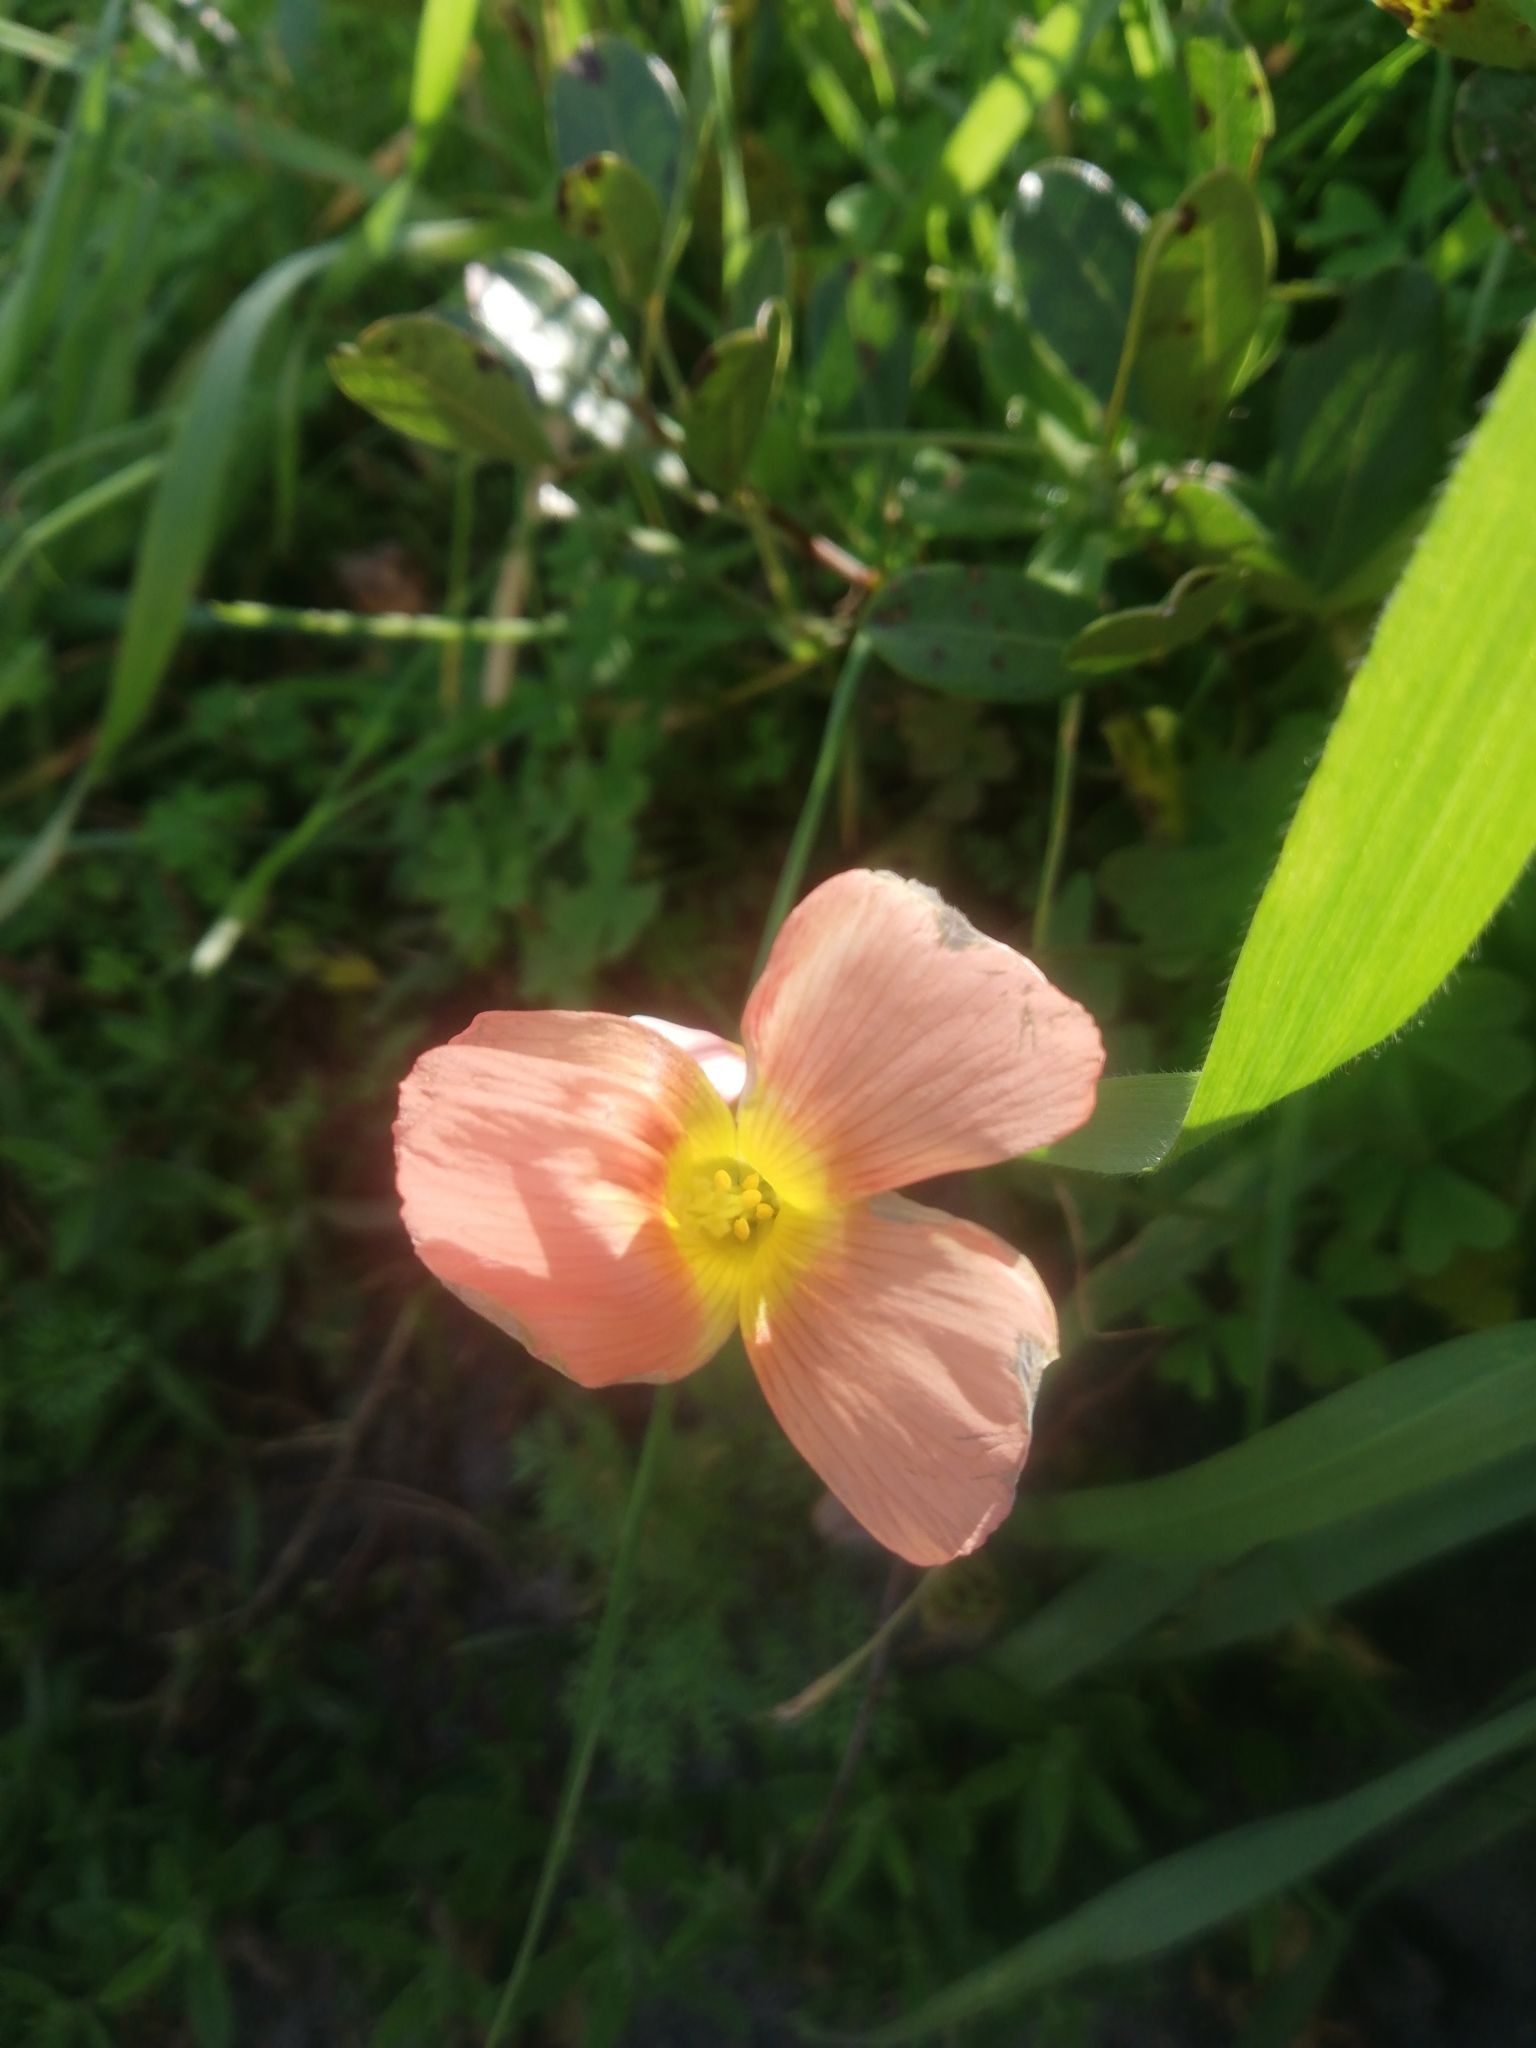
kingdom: Plantae
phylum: Tracheophyta
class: Magnoliopsida
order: Oxalidales
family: Oxalidaceae
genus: Oxalis
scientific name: Oxalis obtusa
